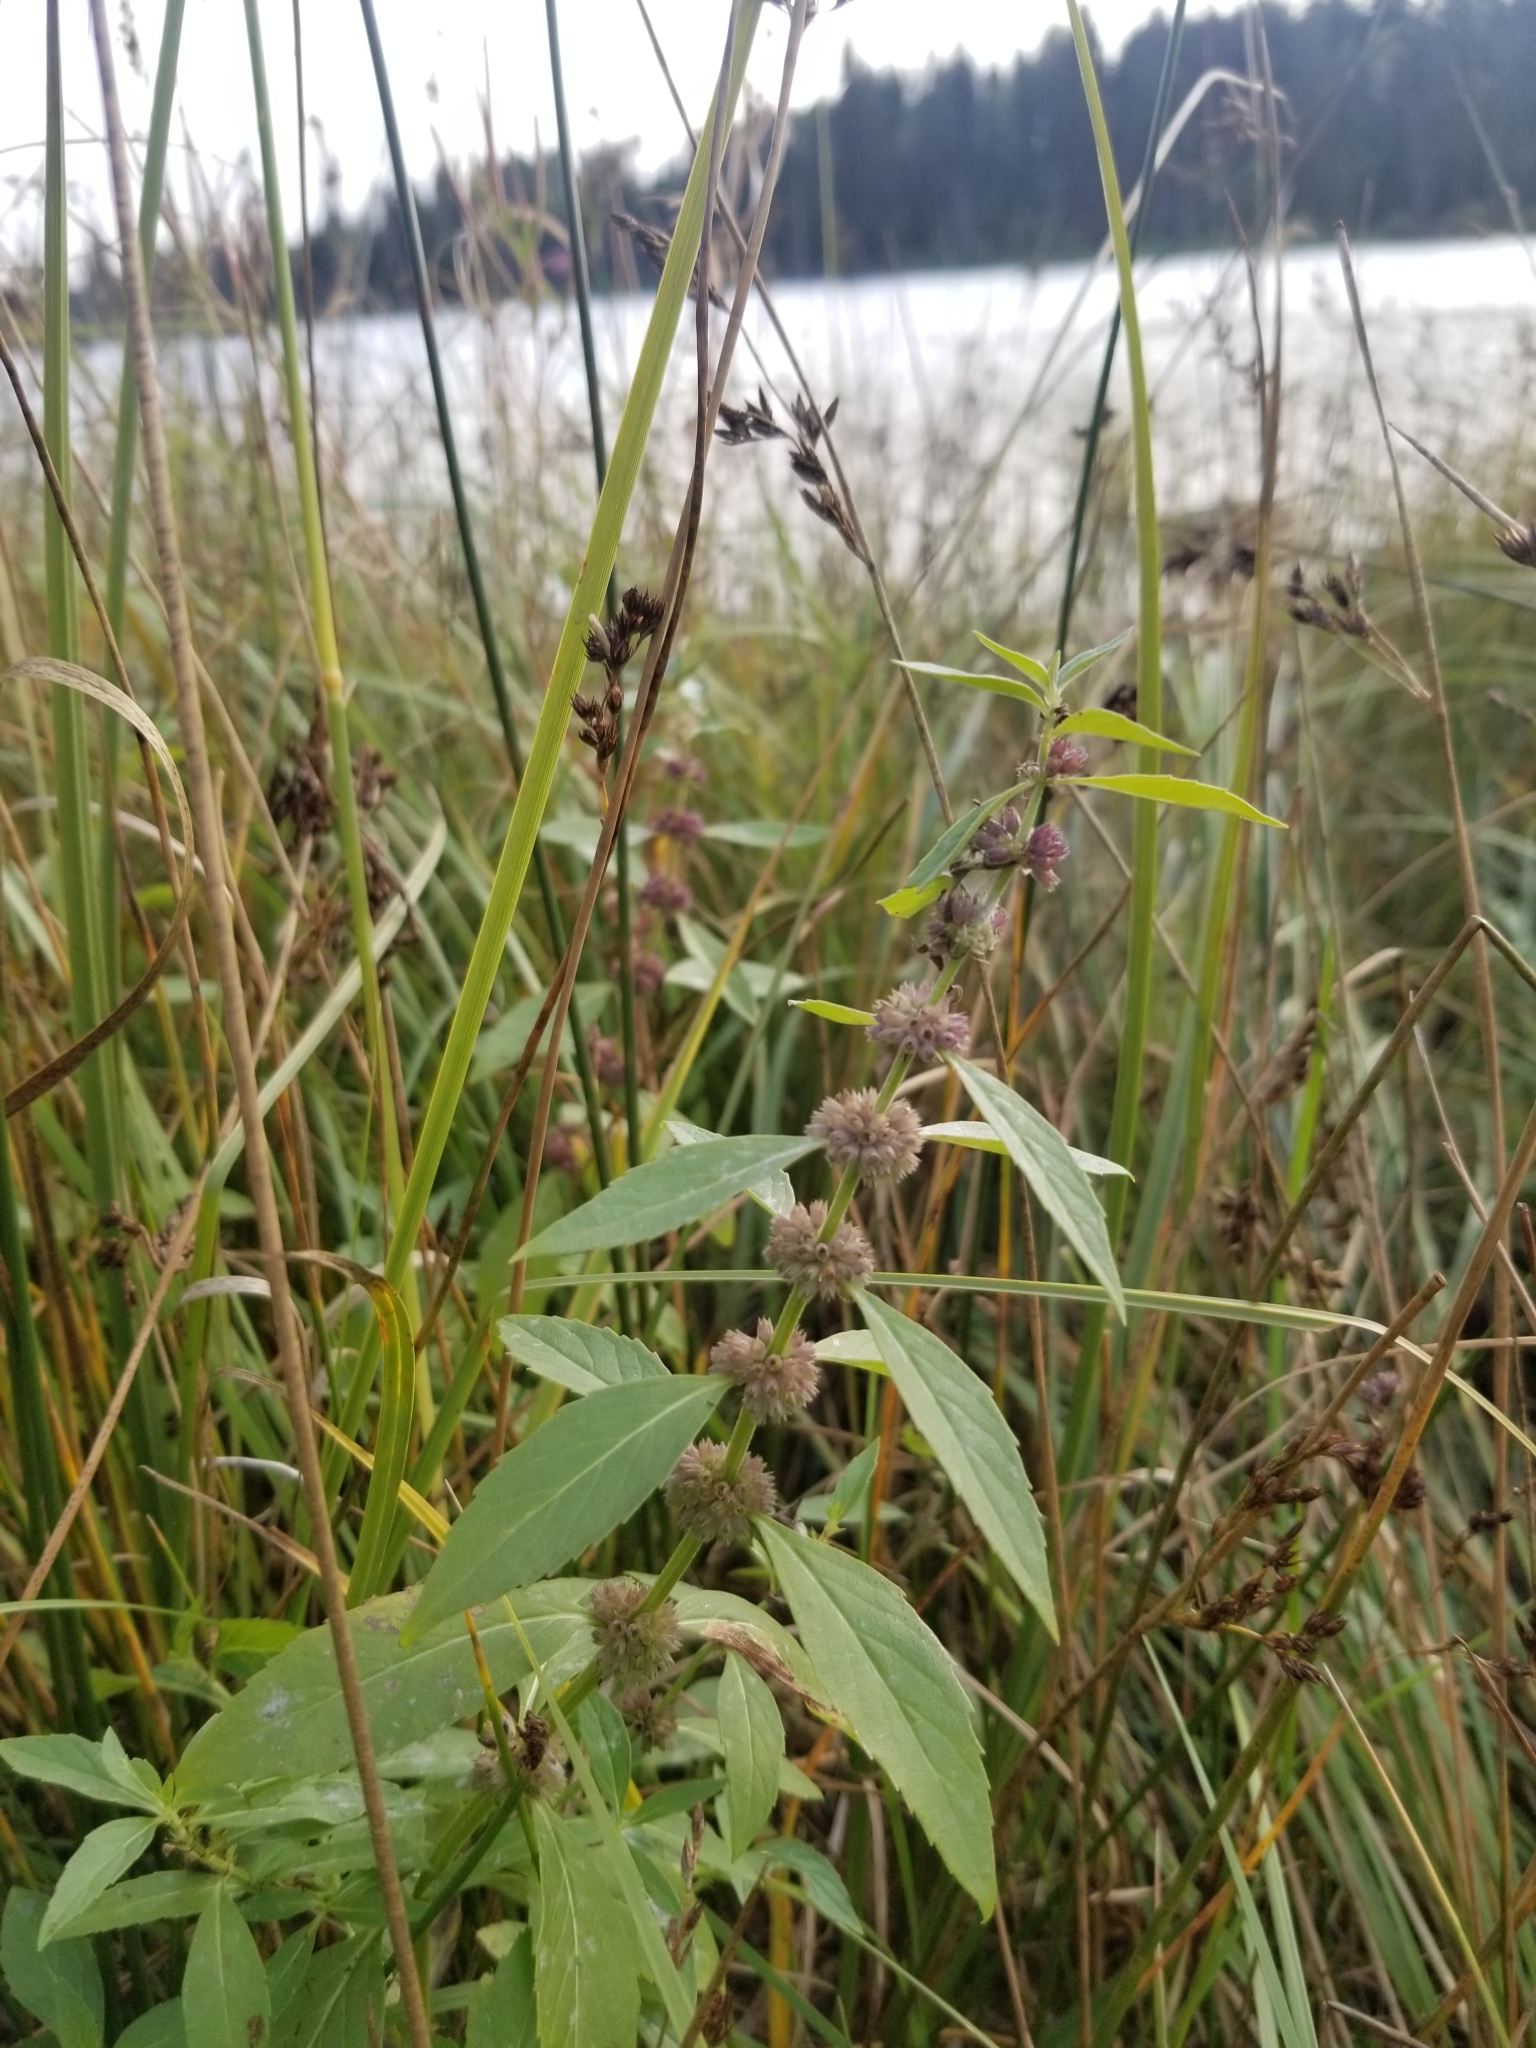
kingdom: Plantae
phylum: Tracheophyta
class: Magnoliopsida
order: Lamiales
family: Lamiaceae
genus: Mentha
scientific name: Mentha canadensis
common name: American corn mint
